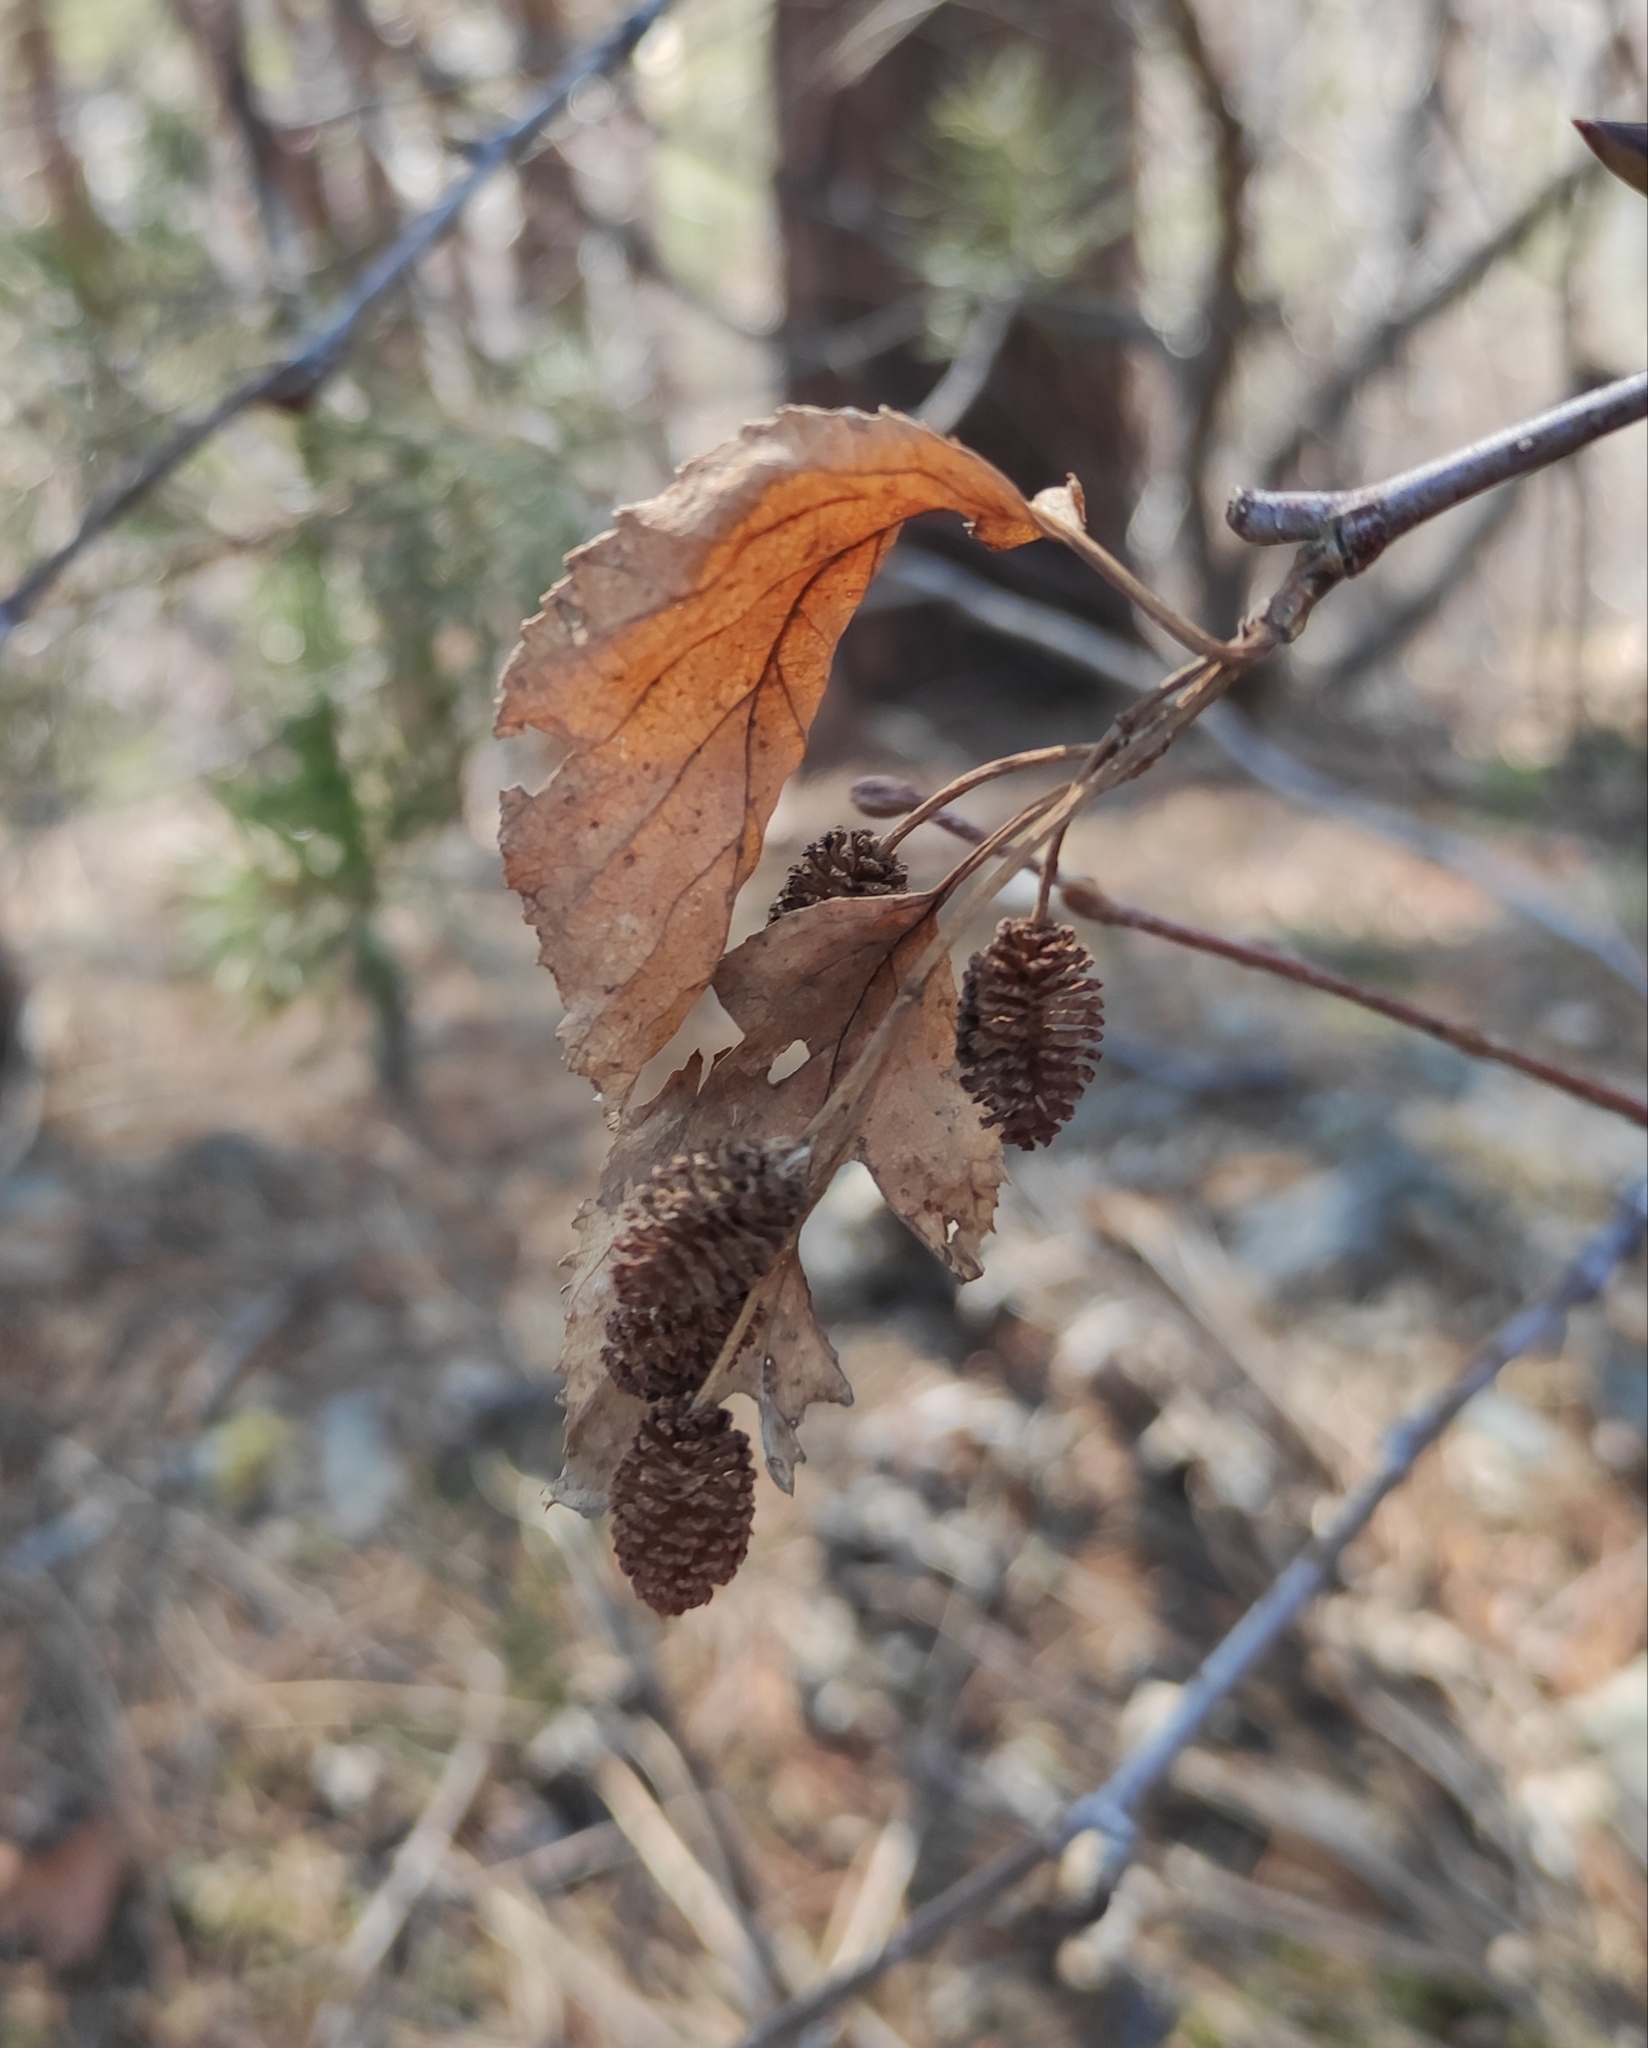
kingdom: Plantae
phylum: Tracheophyta
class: Magnoliopsida
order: Fagales
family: Betulaceae
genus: Alnus
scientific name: Alnus alnobetula
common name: Green alder
